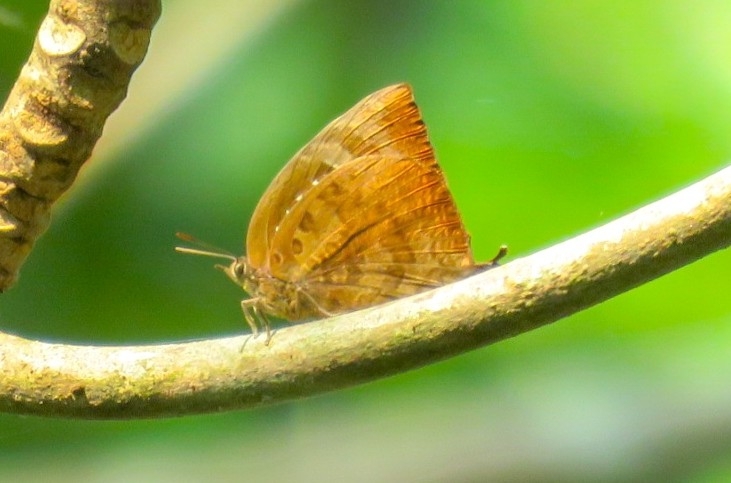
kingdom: Animalia
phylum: Arthropoda
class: Insecta
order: Lepidoptera
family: Lycaenidae
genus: Arhopala
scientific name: Arhopala centaurus
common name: Dull oak-blue
